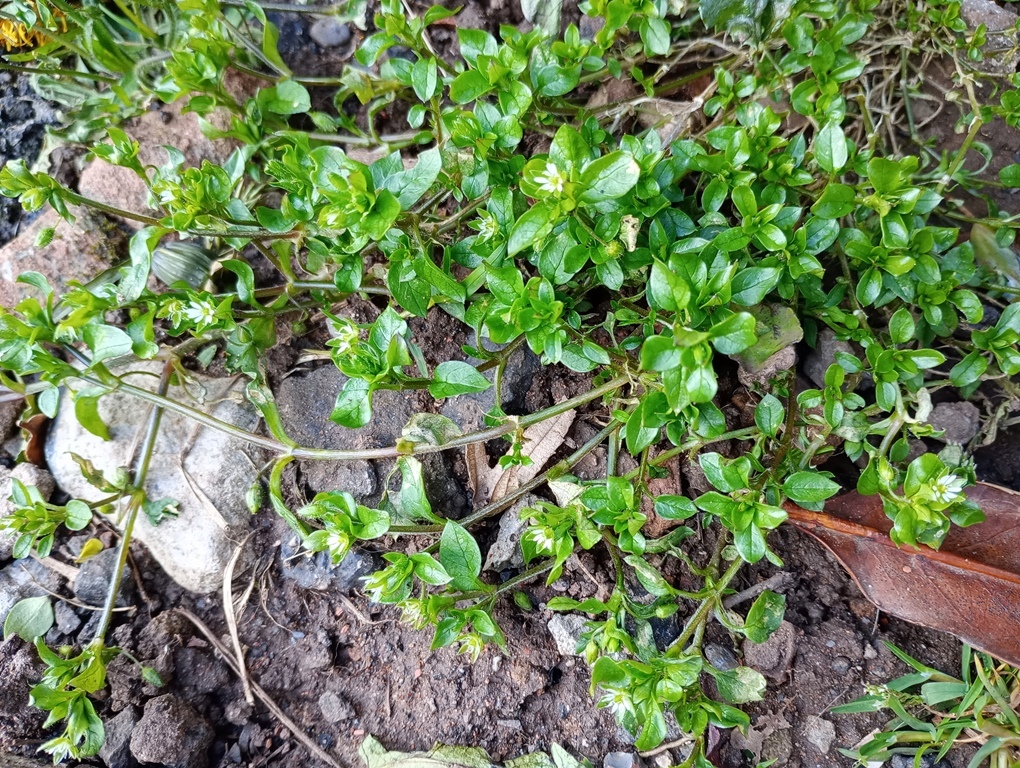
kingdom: Plantae
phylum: Tracheophyta
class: Magnoliopsida
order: Caryophyllales
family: Caryophyllaceae
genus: Stellaria
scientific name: Stellaria media
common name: Common chickweed
